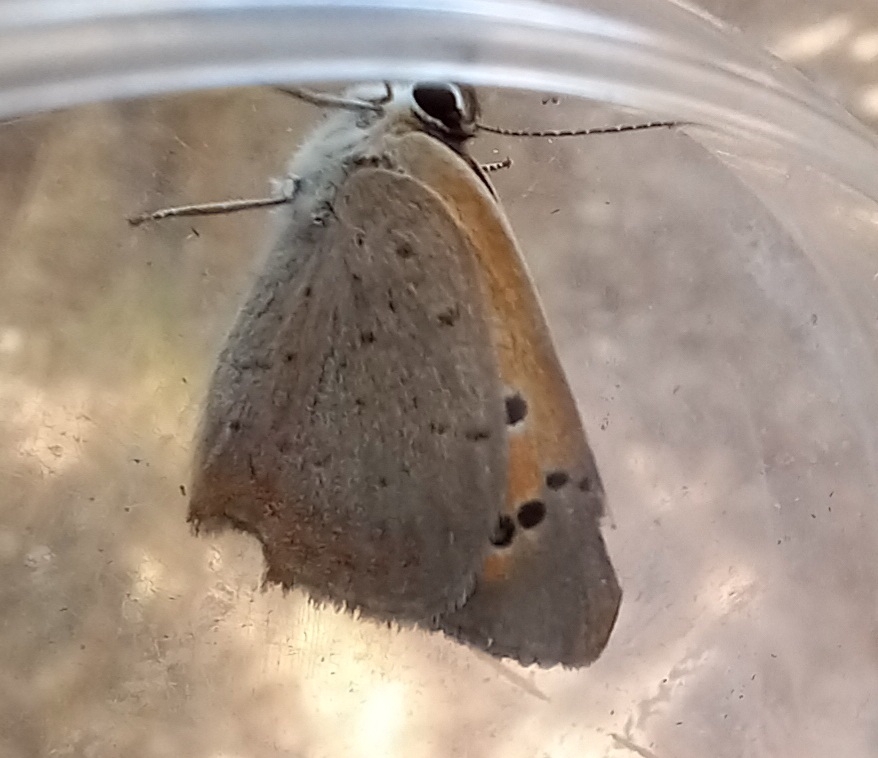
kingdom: Animalia
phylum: Arthropoda
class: Insecta
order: Lepidoptera
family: Lycaenidae
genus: Lycaena
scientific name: Lycaena phlaeas
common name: Small copper
